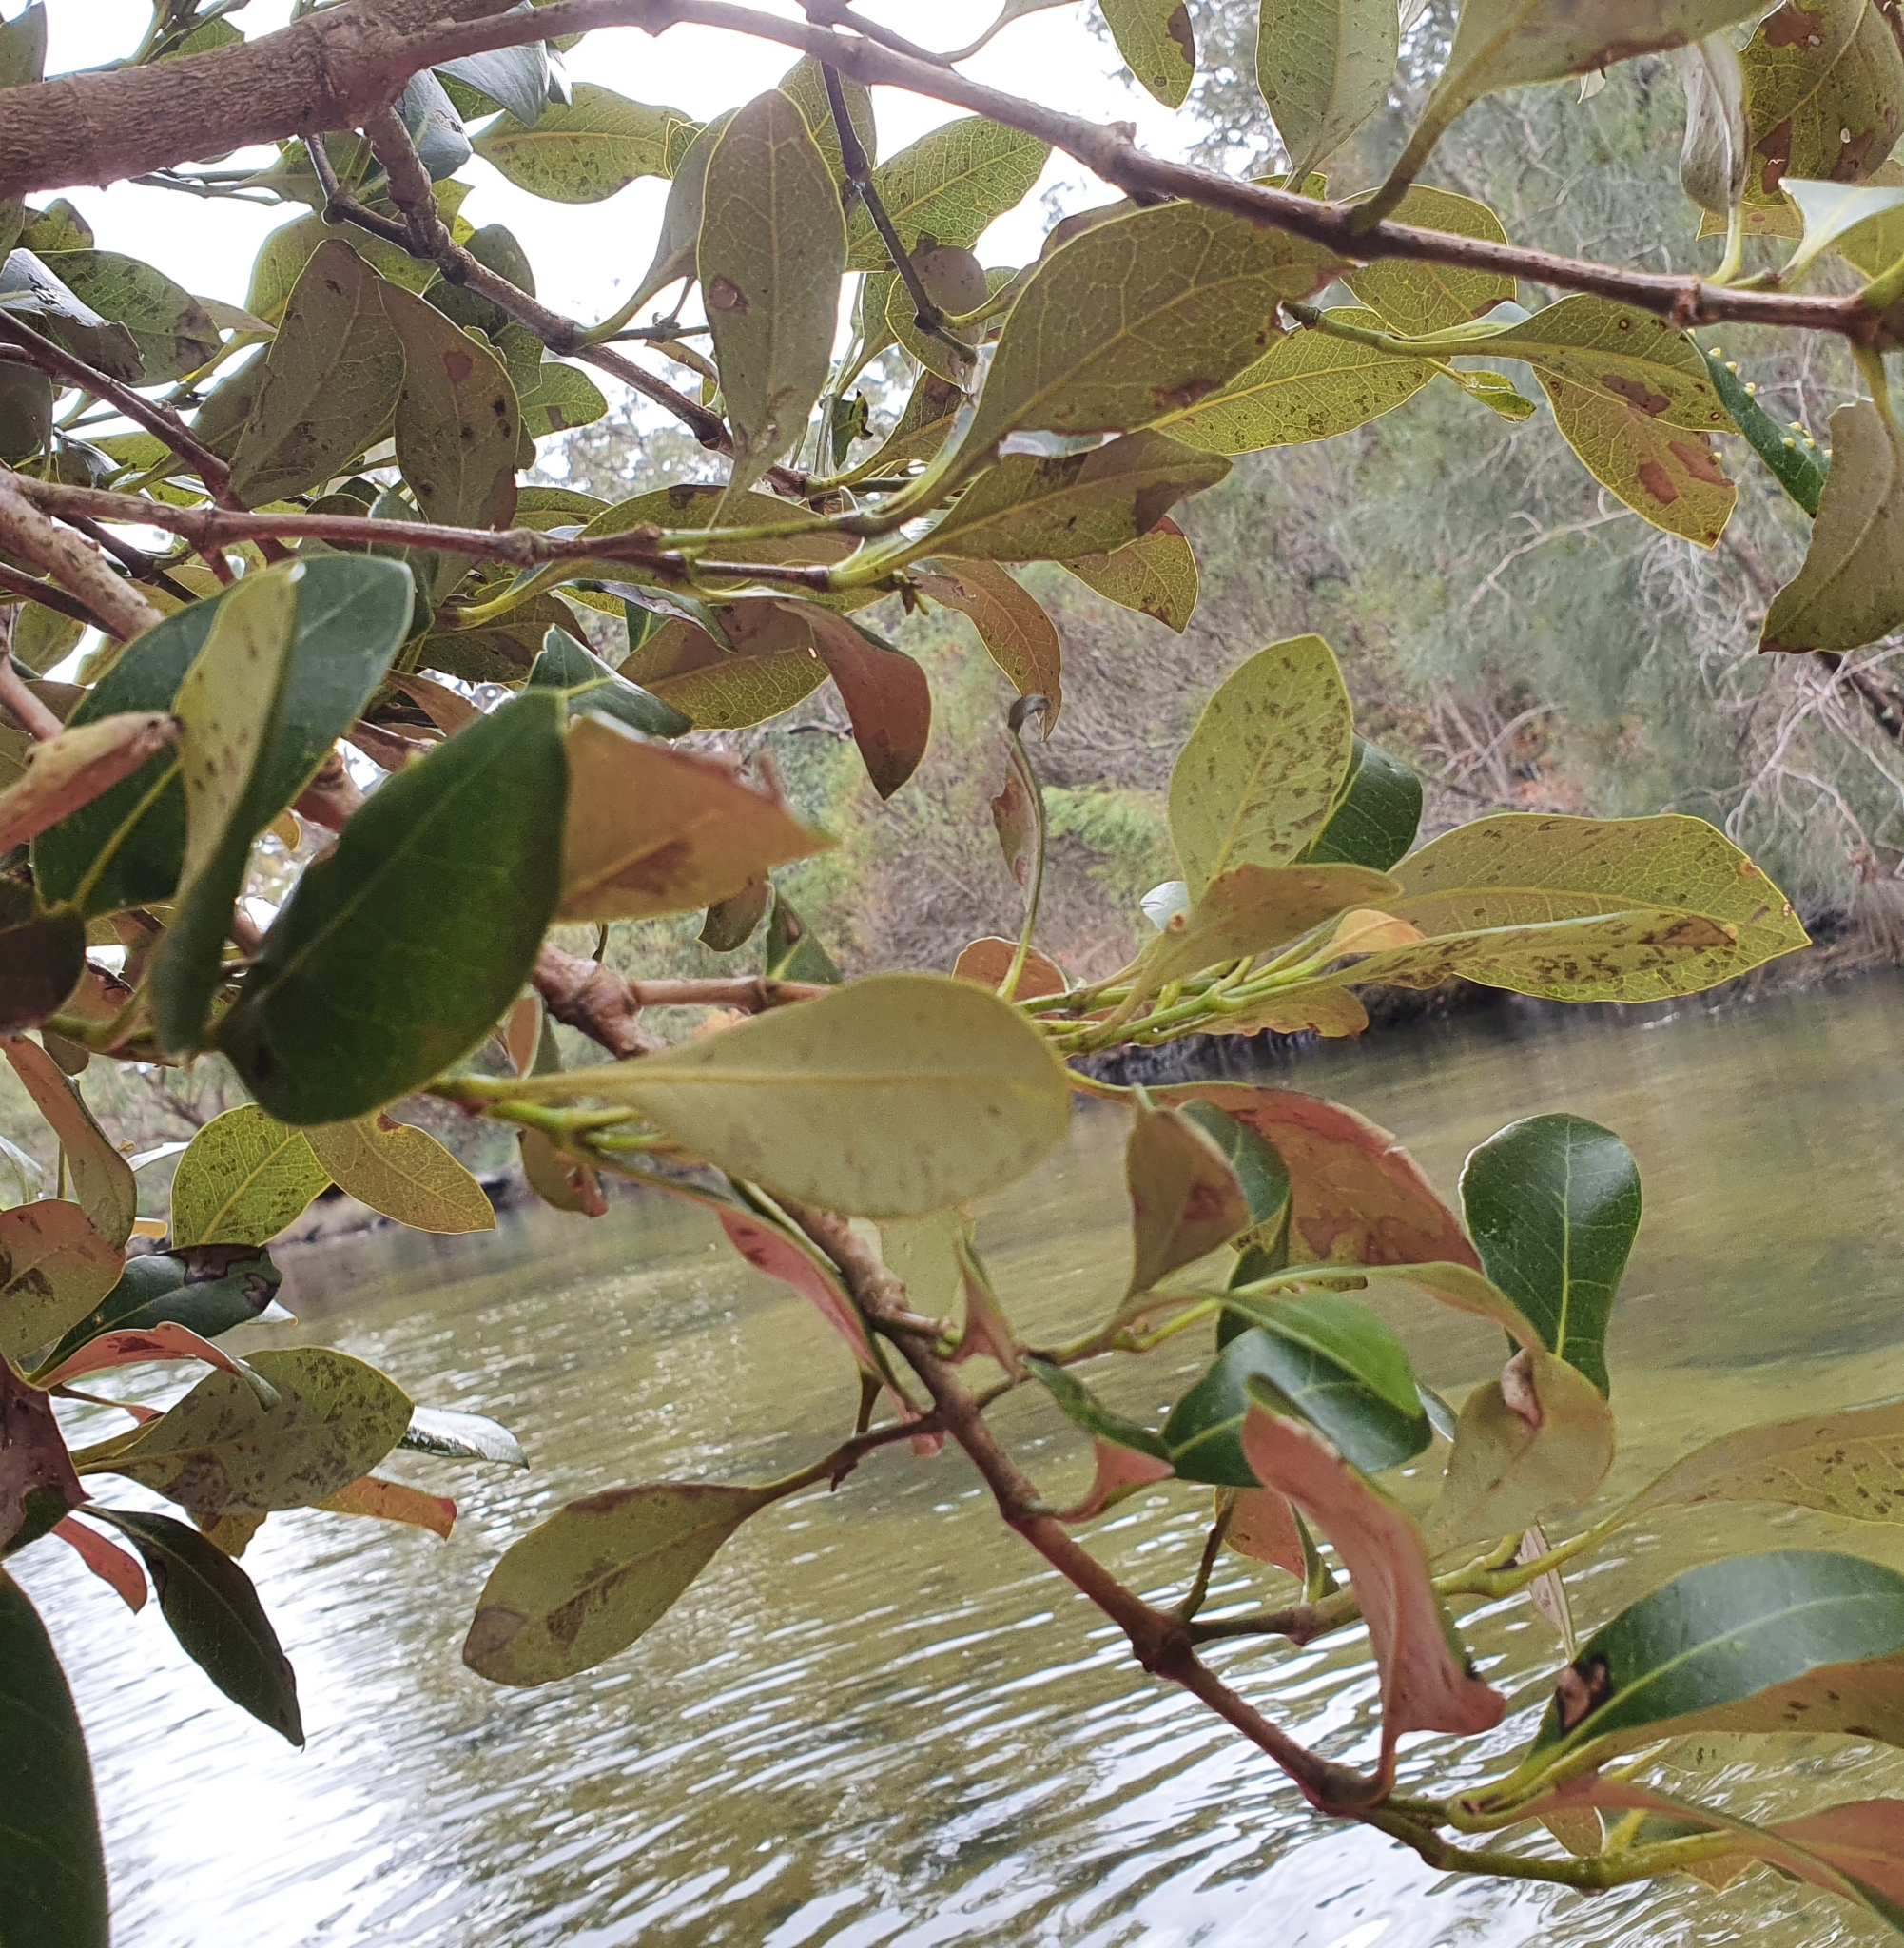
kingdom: Plantae
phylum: Tracheophyta
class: Magnoliopsida
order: Lamiales
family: Acanthaceae
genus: Avicennia
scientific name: Avicennia marina
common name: Gray mangrove
